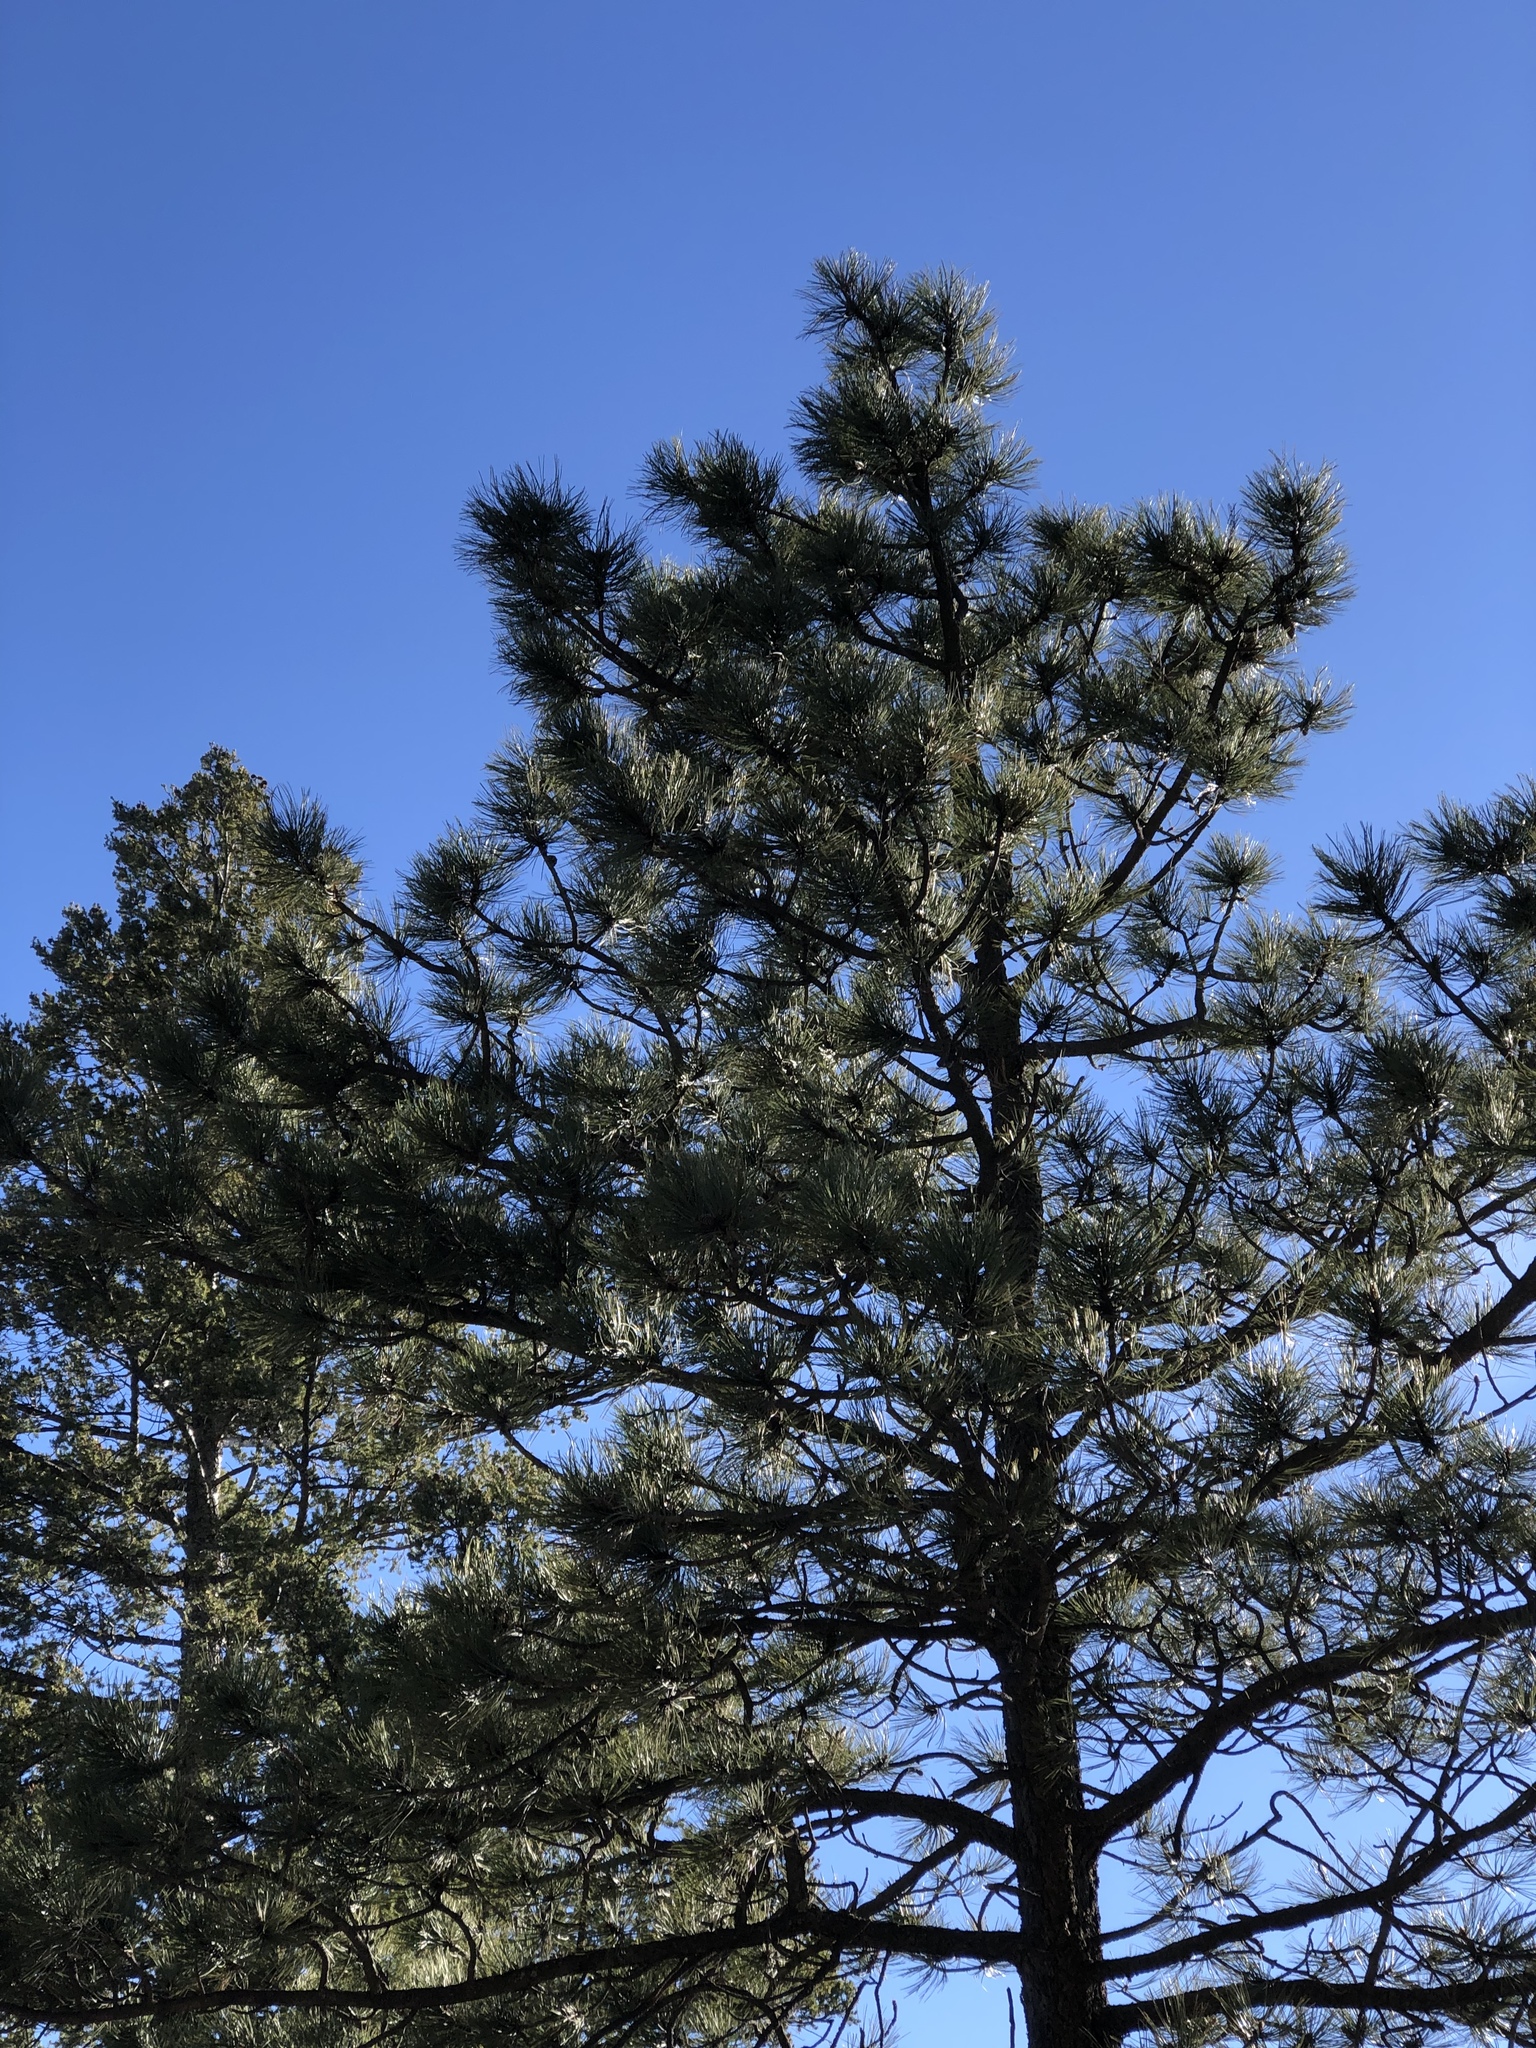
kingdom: Plantae
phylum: Tracheophyta
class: Pinopsida
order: Pinales
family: Pinaceae
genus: Pinus
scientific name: Pinus ponderosa
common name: Western yellow-pine
